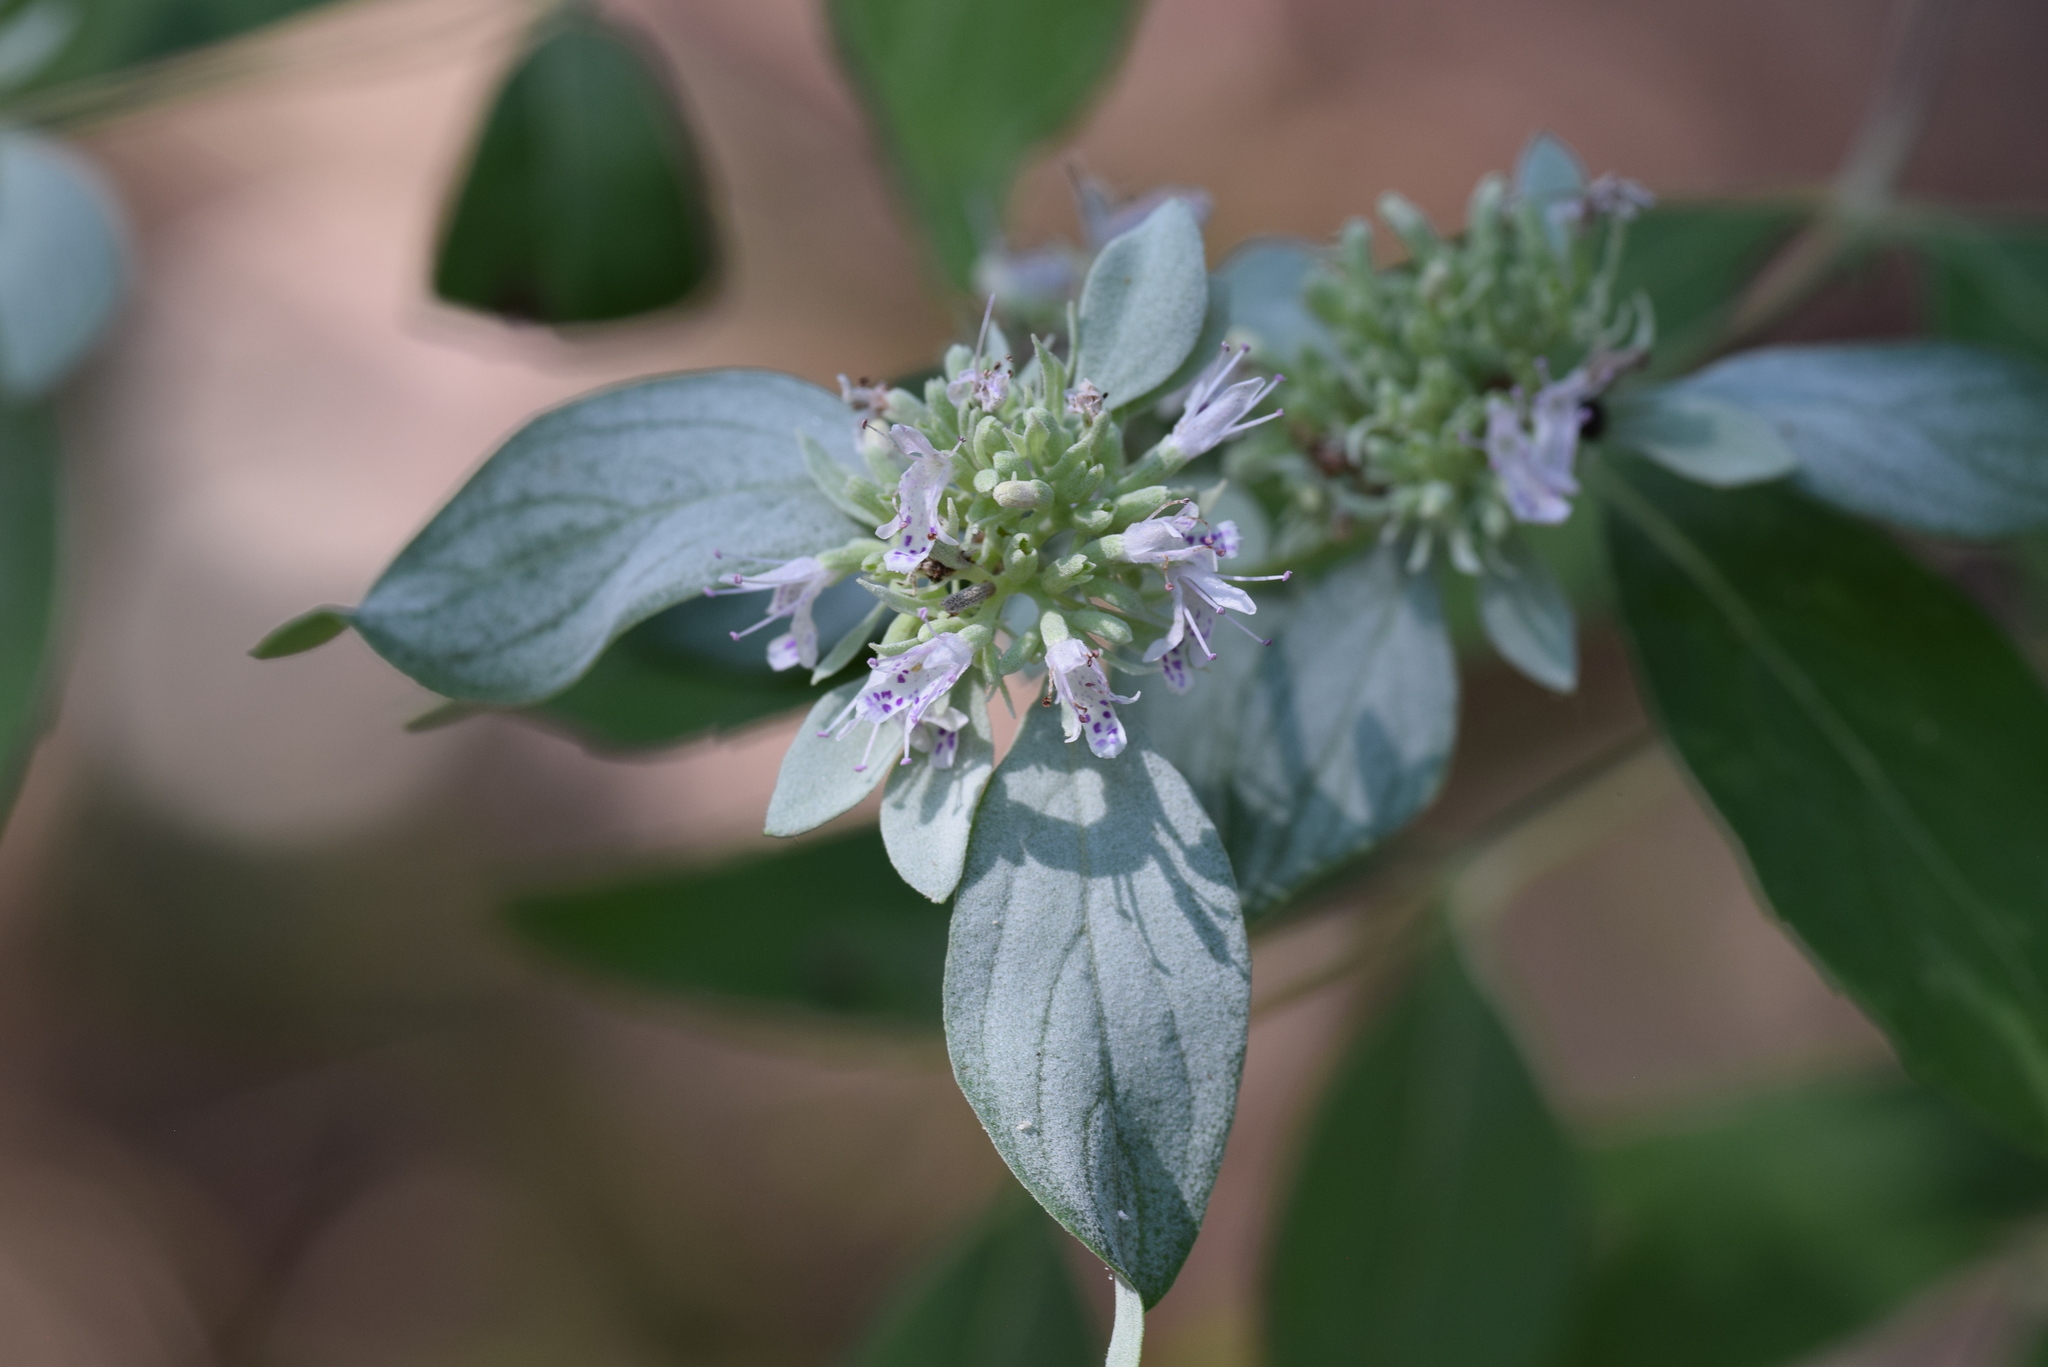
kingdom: Plantae
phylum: Tracheophyta
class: Magnoliopsida
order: Lamiales
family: Lamiaceae
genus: Pycnanthemum
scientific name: Pycnanthemum albescens
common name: White-leaf mountain-mint
